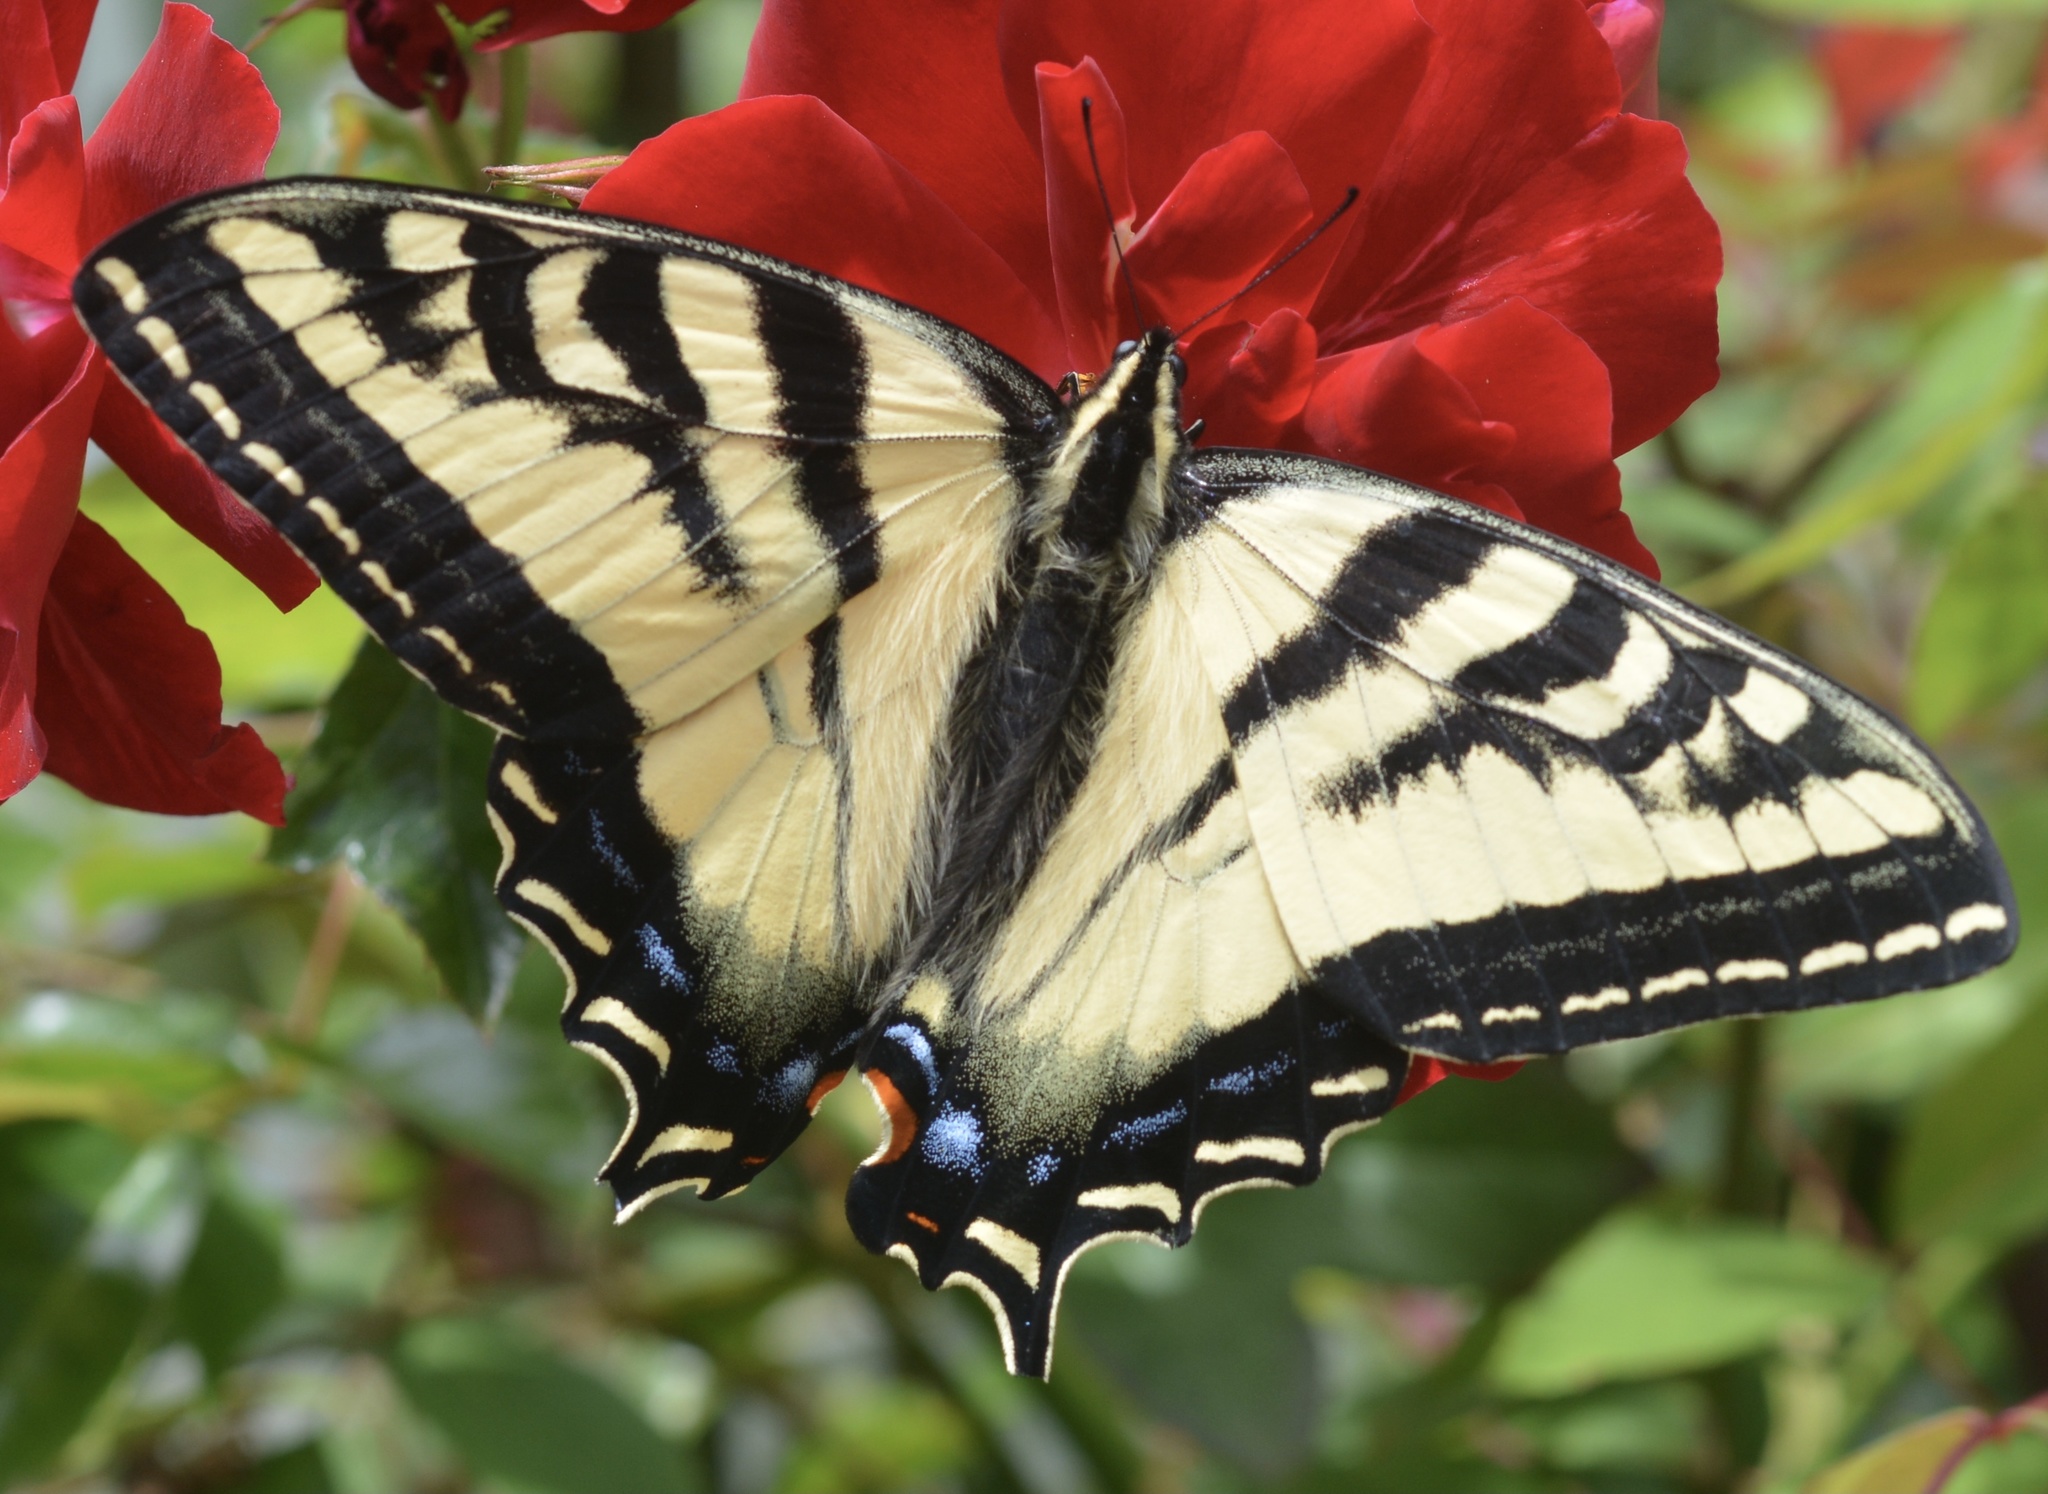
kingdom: Animalia
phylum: Arthropoda
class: Insecta
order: Lepidoptera
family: Papilionidae
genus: Papilio
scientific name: Papilio rutulus
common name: Western tiger swallowtail
